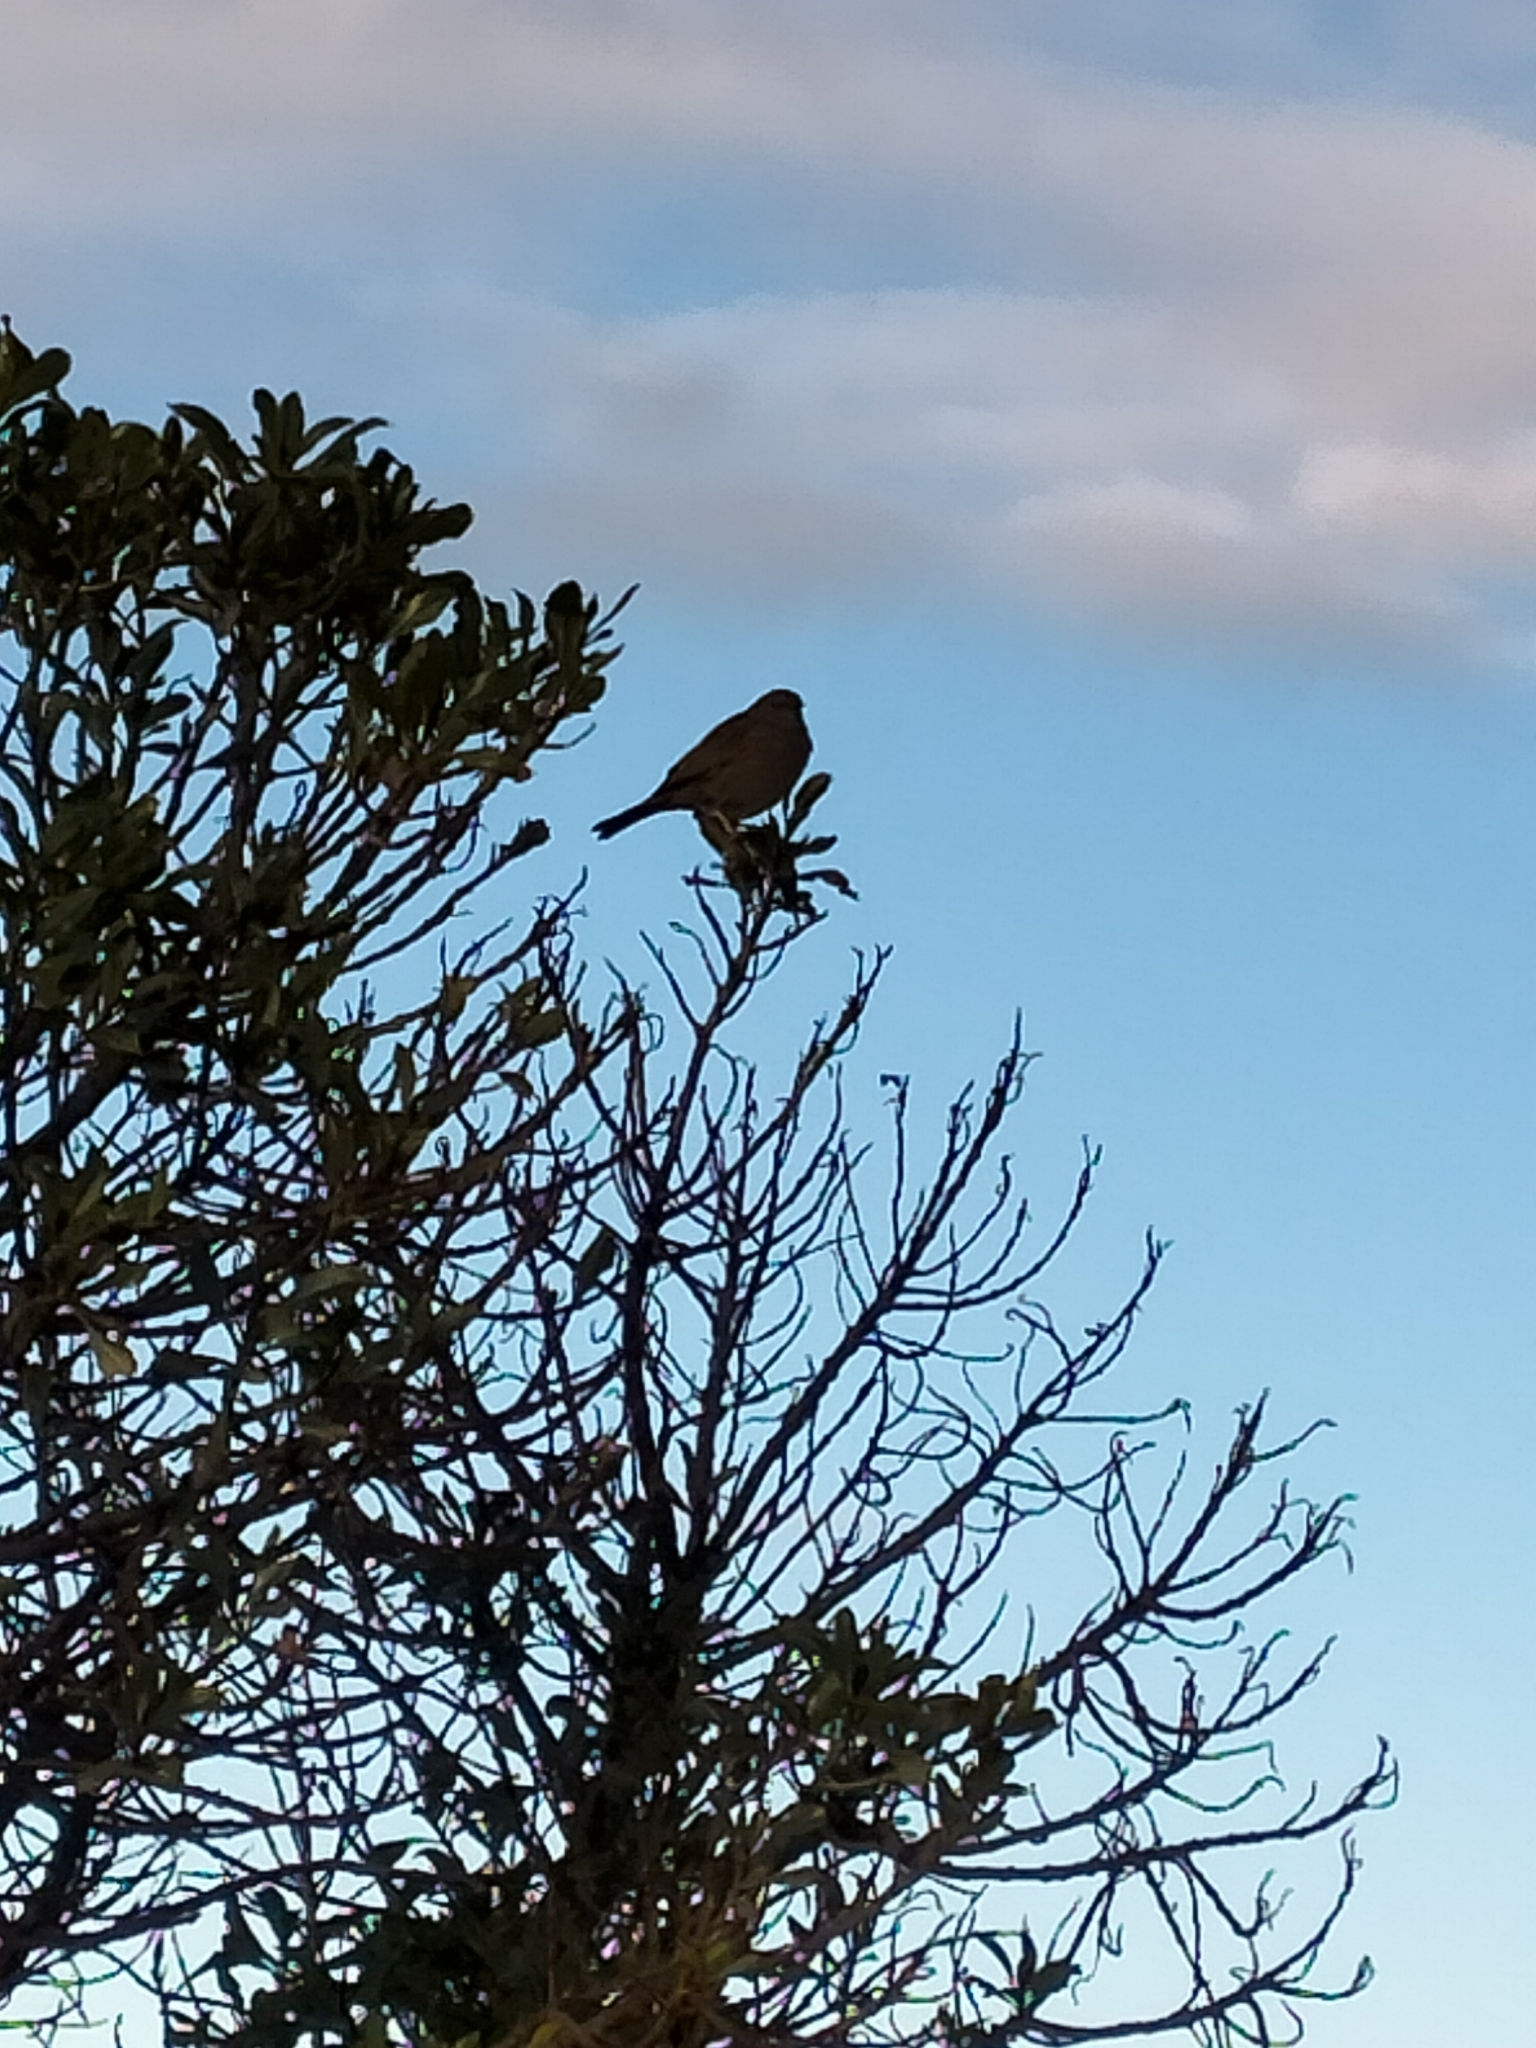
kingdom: Animalia
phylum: Chordata
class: Aves
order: Passeriformes
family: Prunellidae
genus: Prunella
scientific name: Prunella modularis
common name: Dunnock
